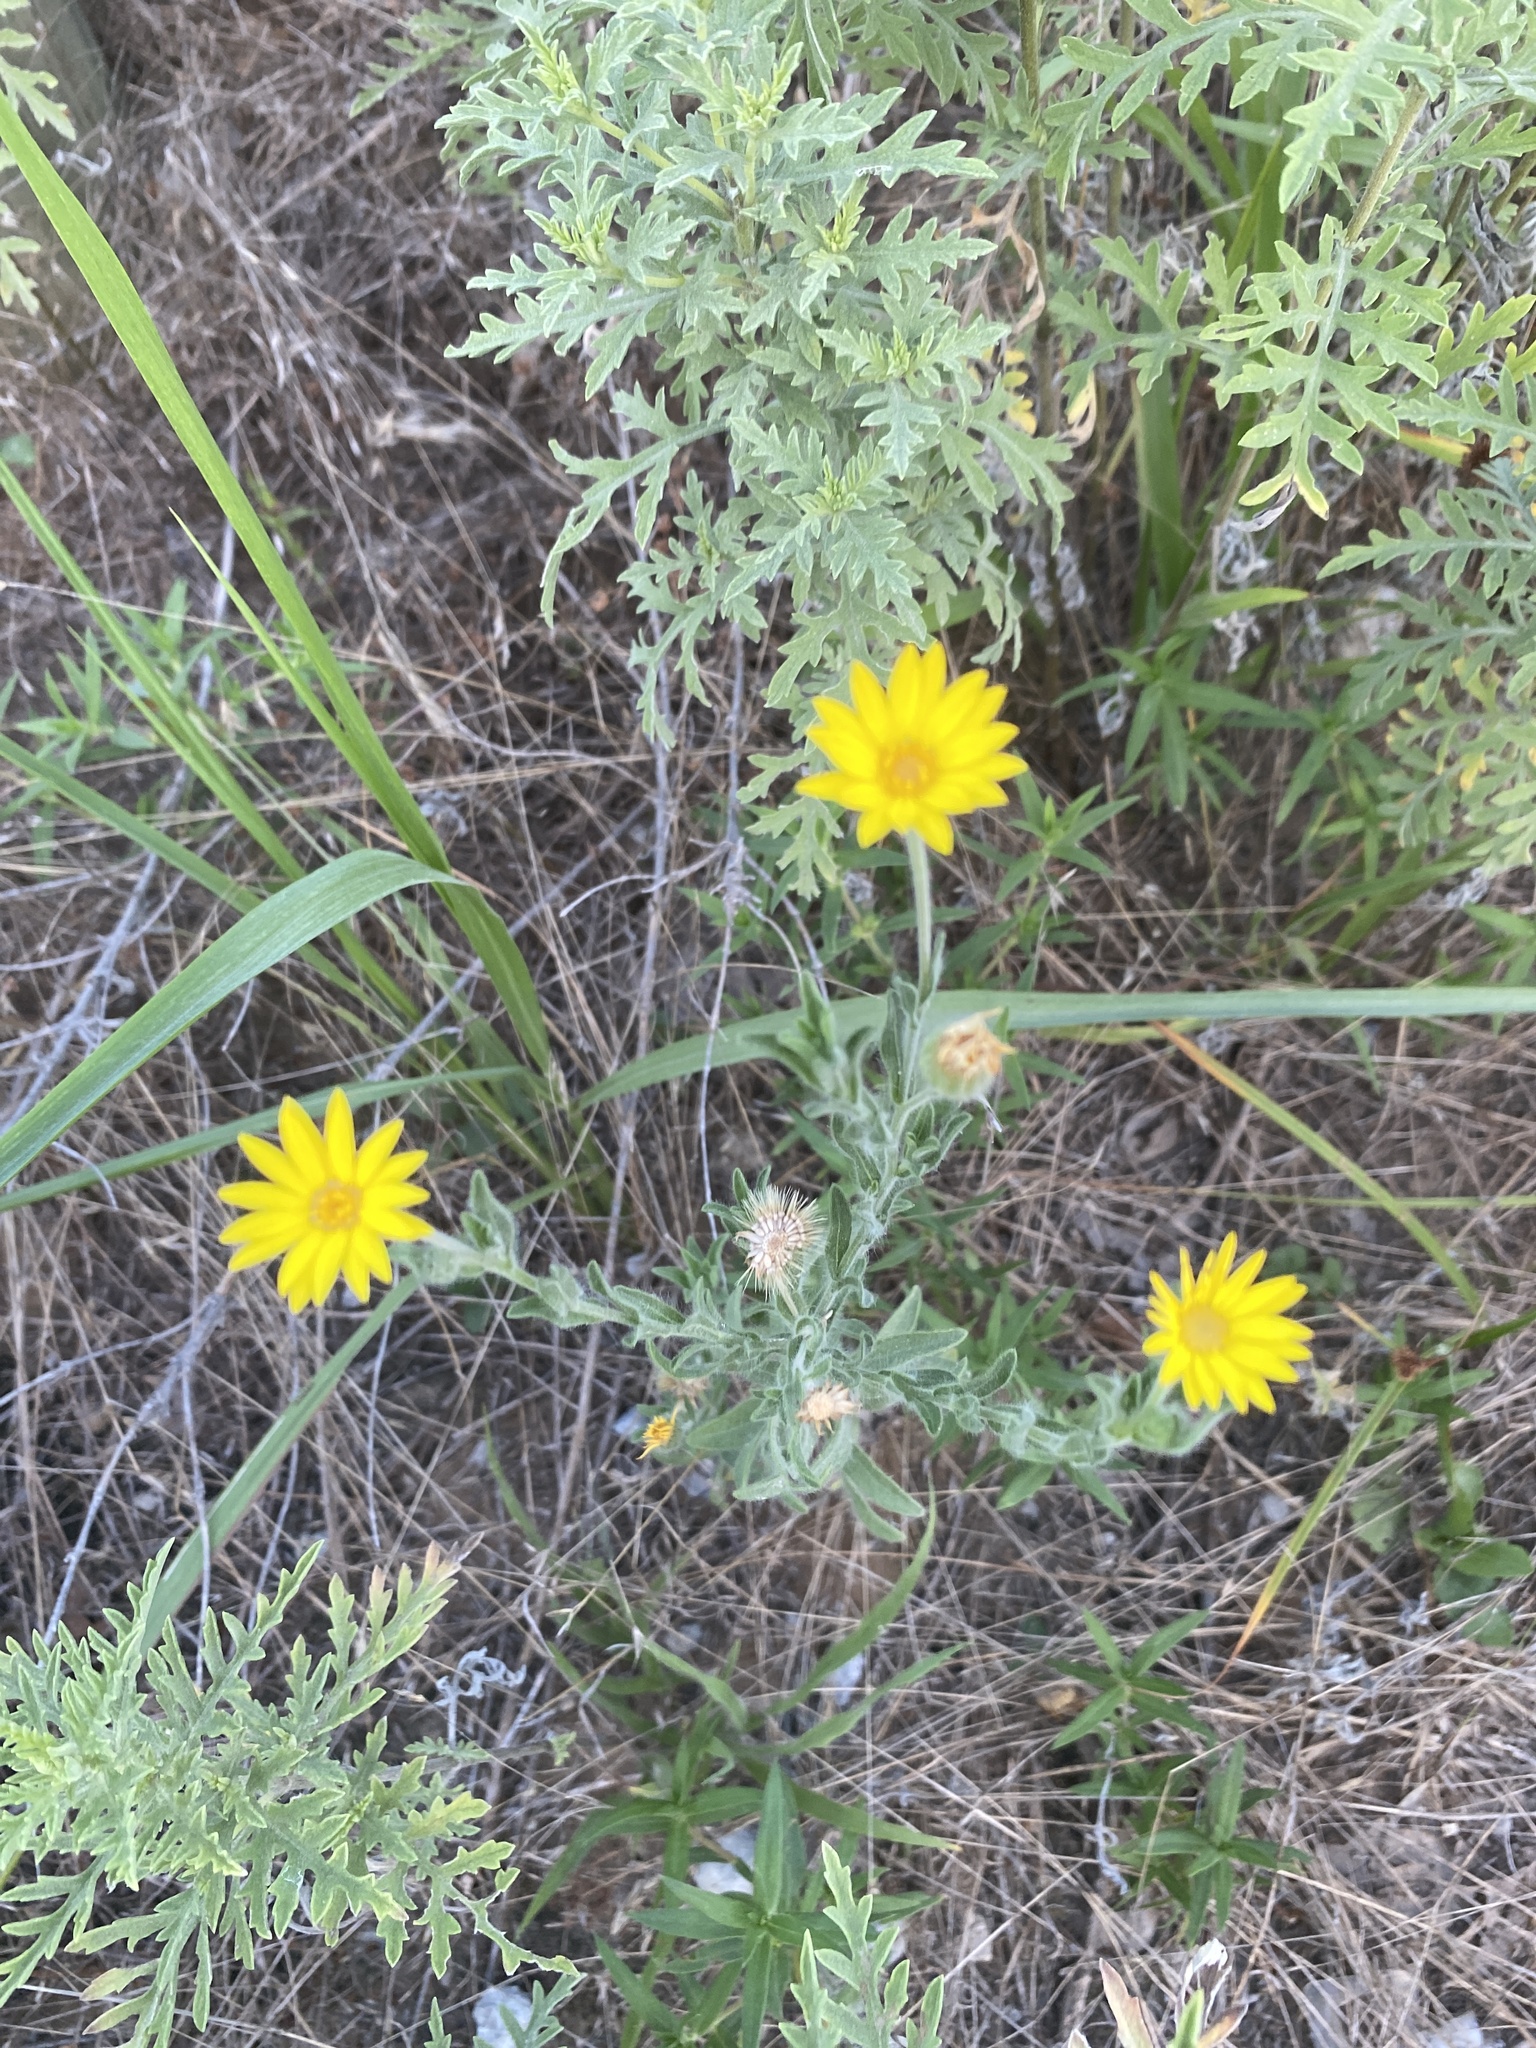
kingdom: Plantae
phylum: Tracheophyta
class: Magnoliopsida
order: Asterales
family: Asteraceae
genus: Bradburia
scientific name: Bradburia pilosa
